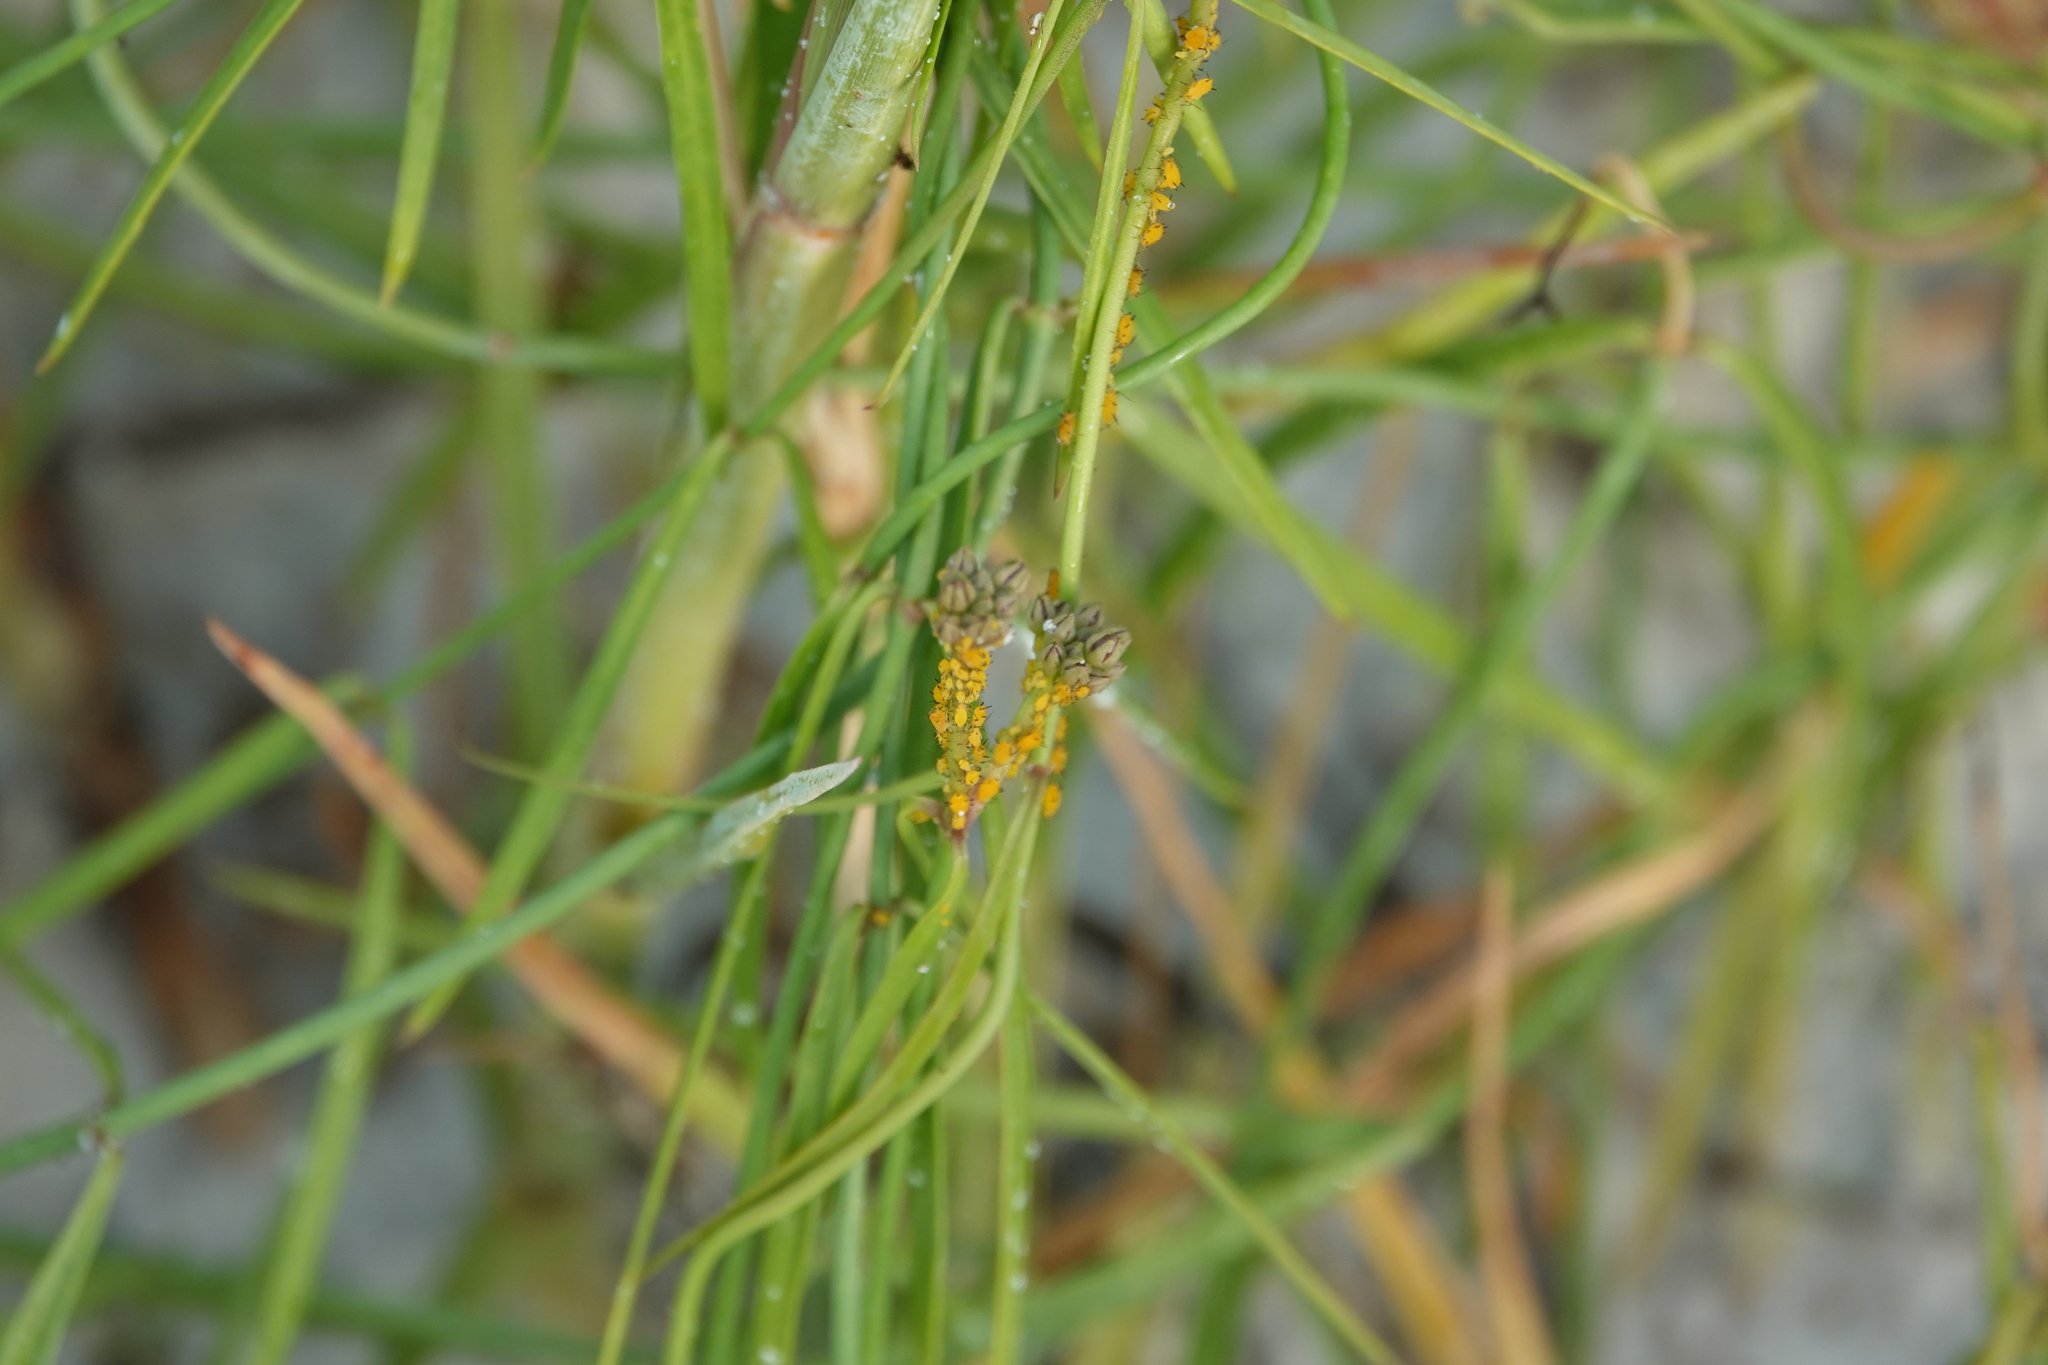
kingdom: Animalia
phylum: Arthropoda
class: Insecta
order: Hemiptera
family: Aphididae
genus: Aphis
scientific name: Aphis nerii
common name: Oleander aphid
